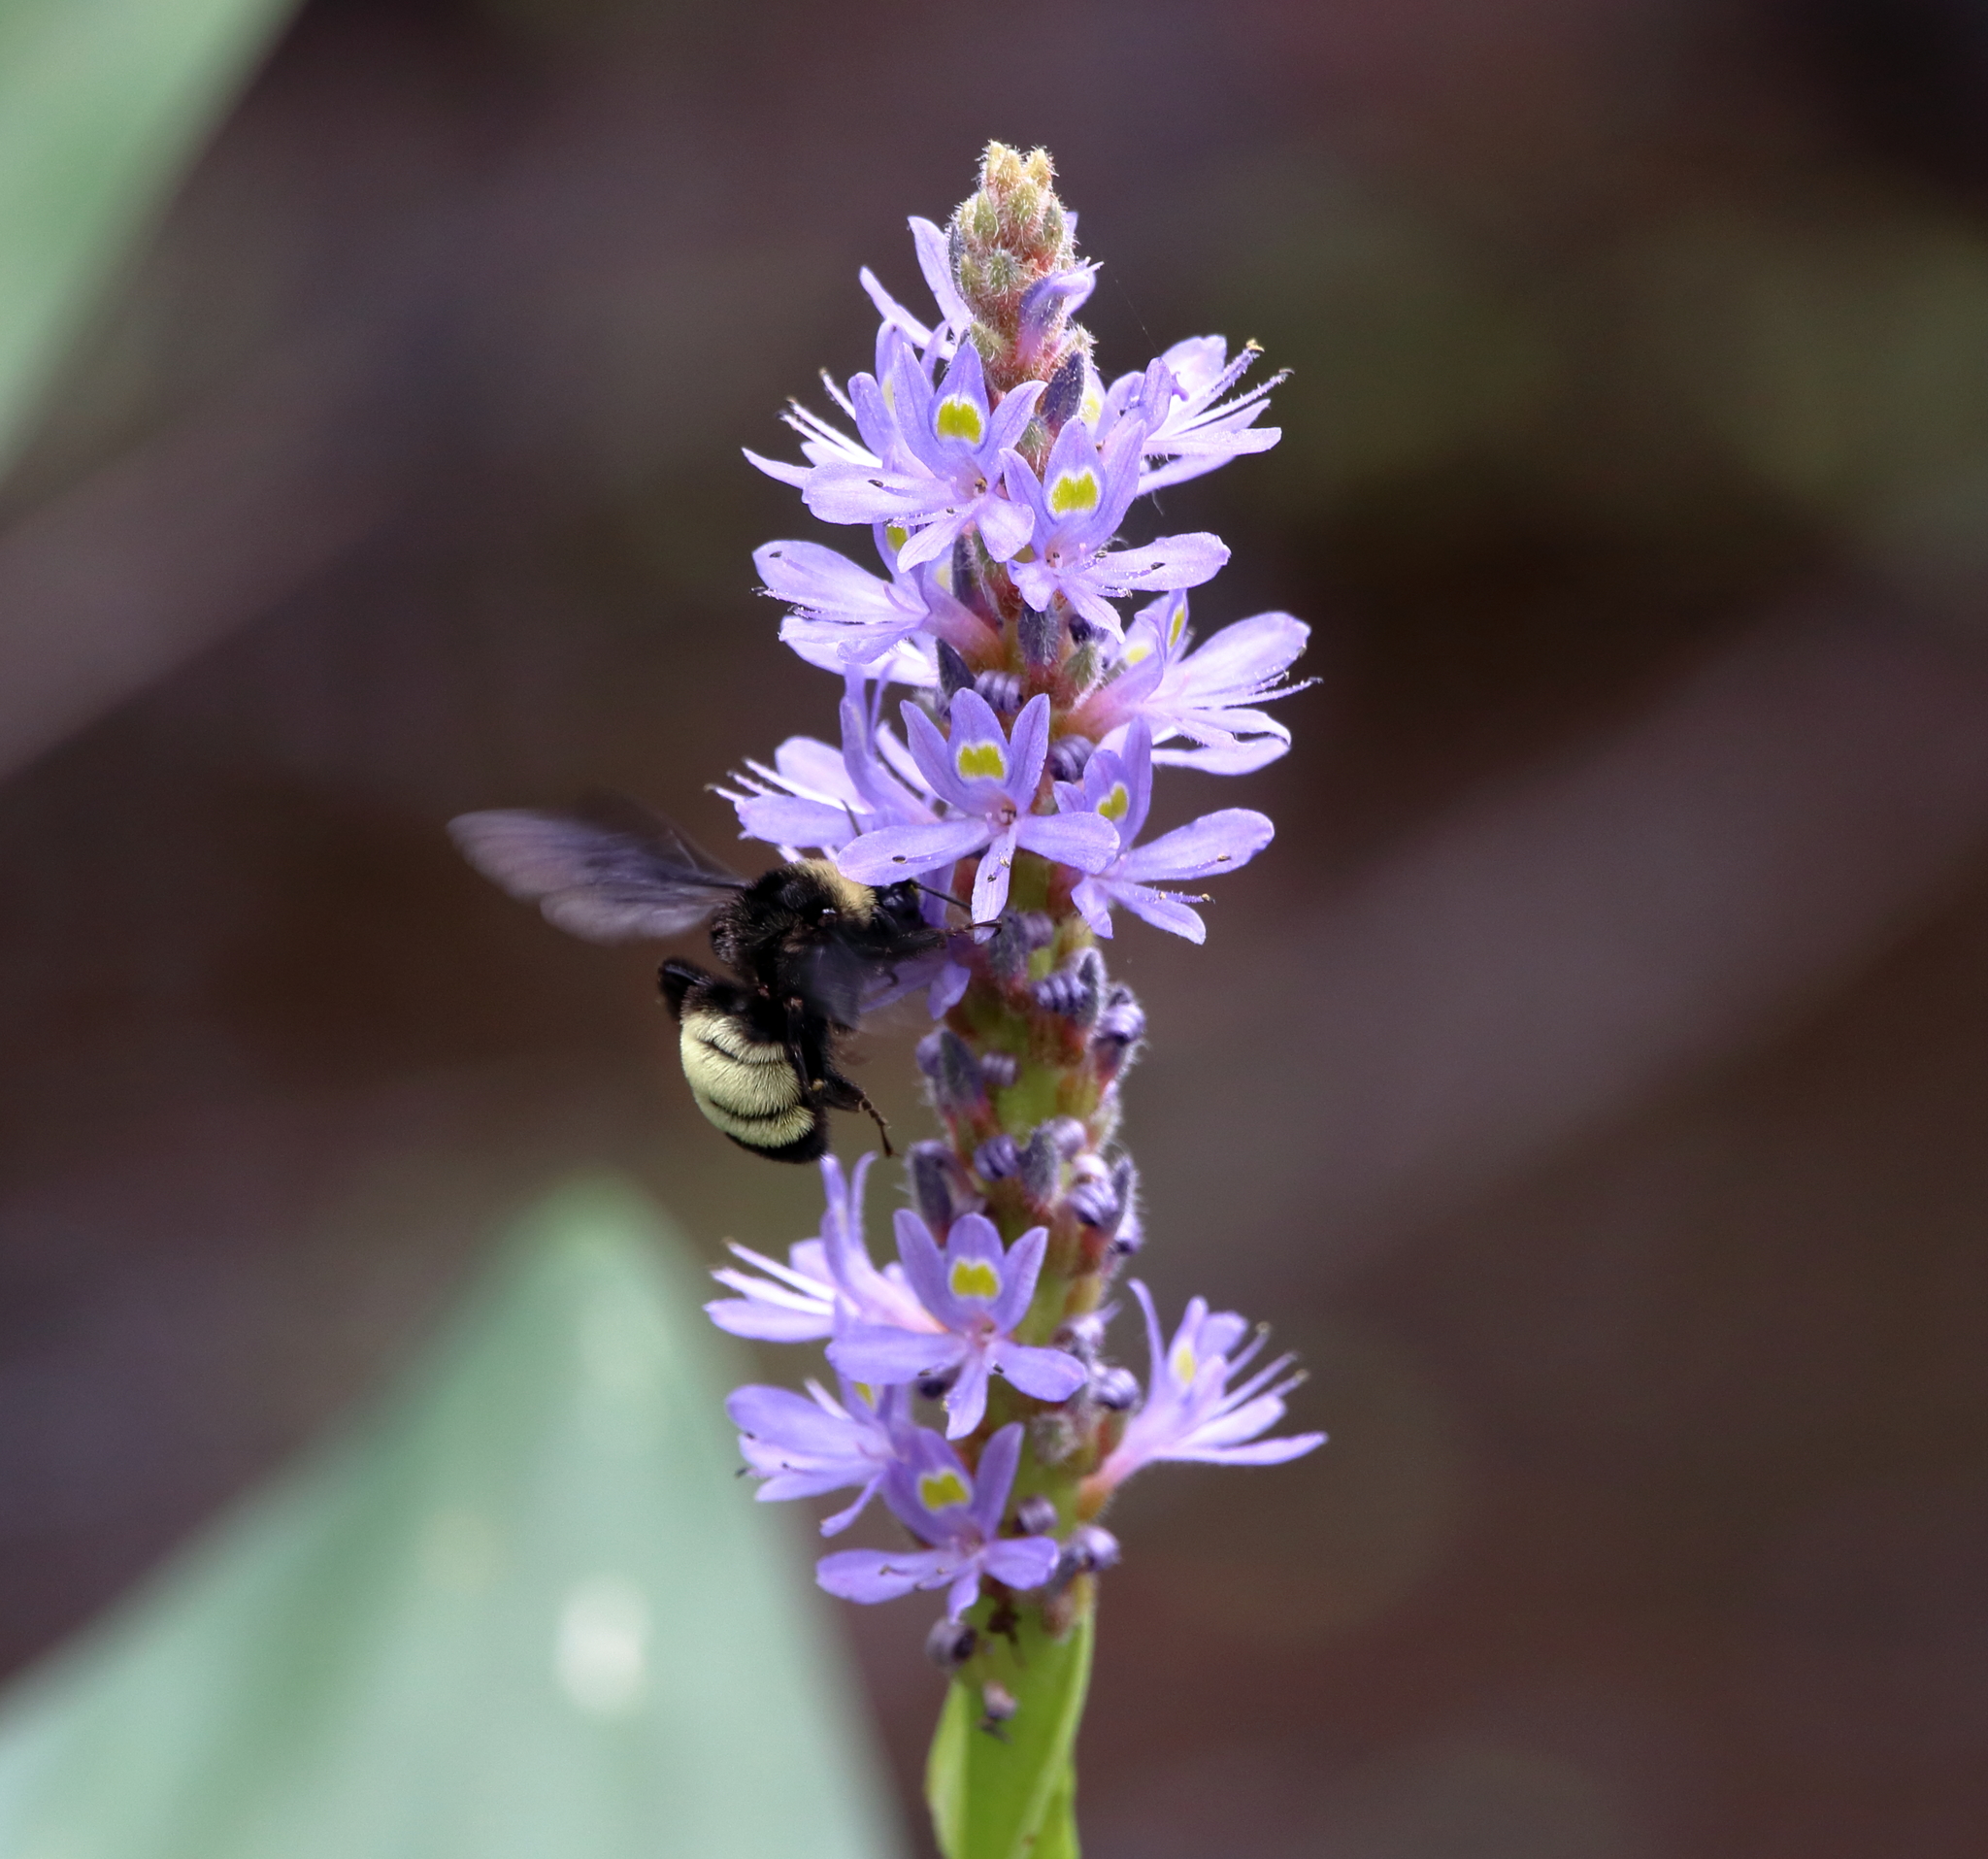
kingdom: Animalia
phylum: Arthropoda
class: Insecta
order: Hymenoptera
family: Apidae
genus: Bombus
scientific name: Bombus pensylvanicus
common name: Bumble bee
